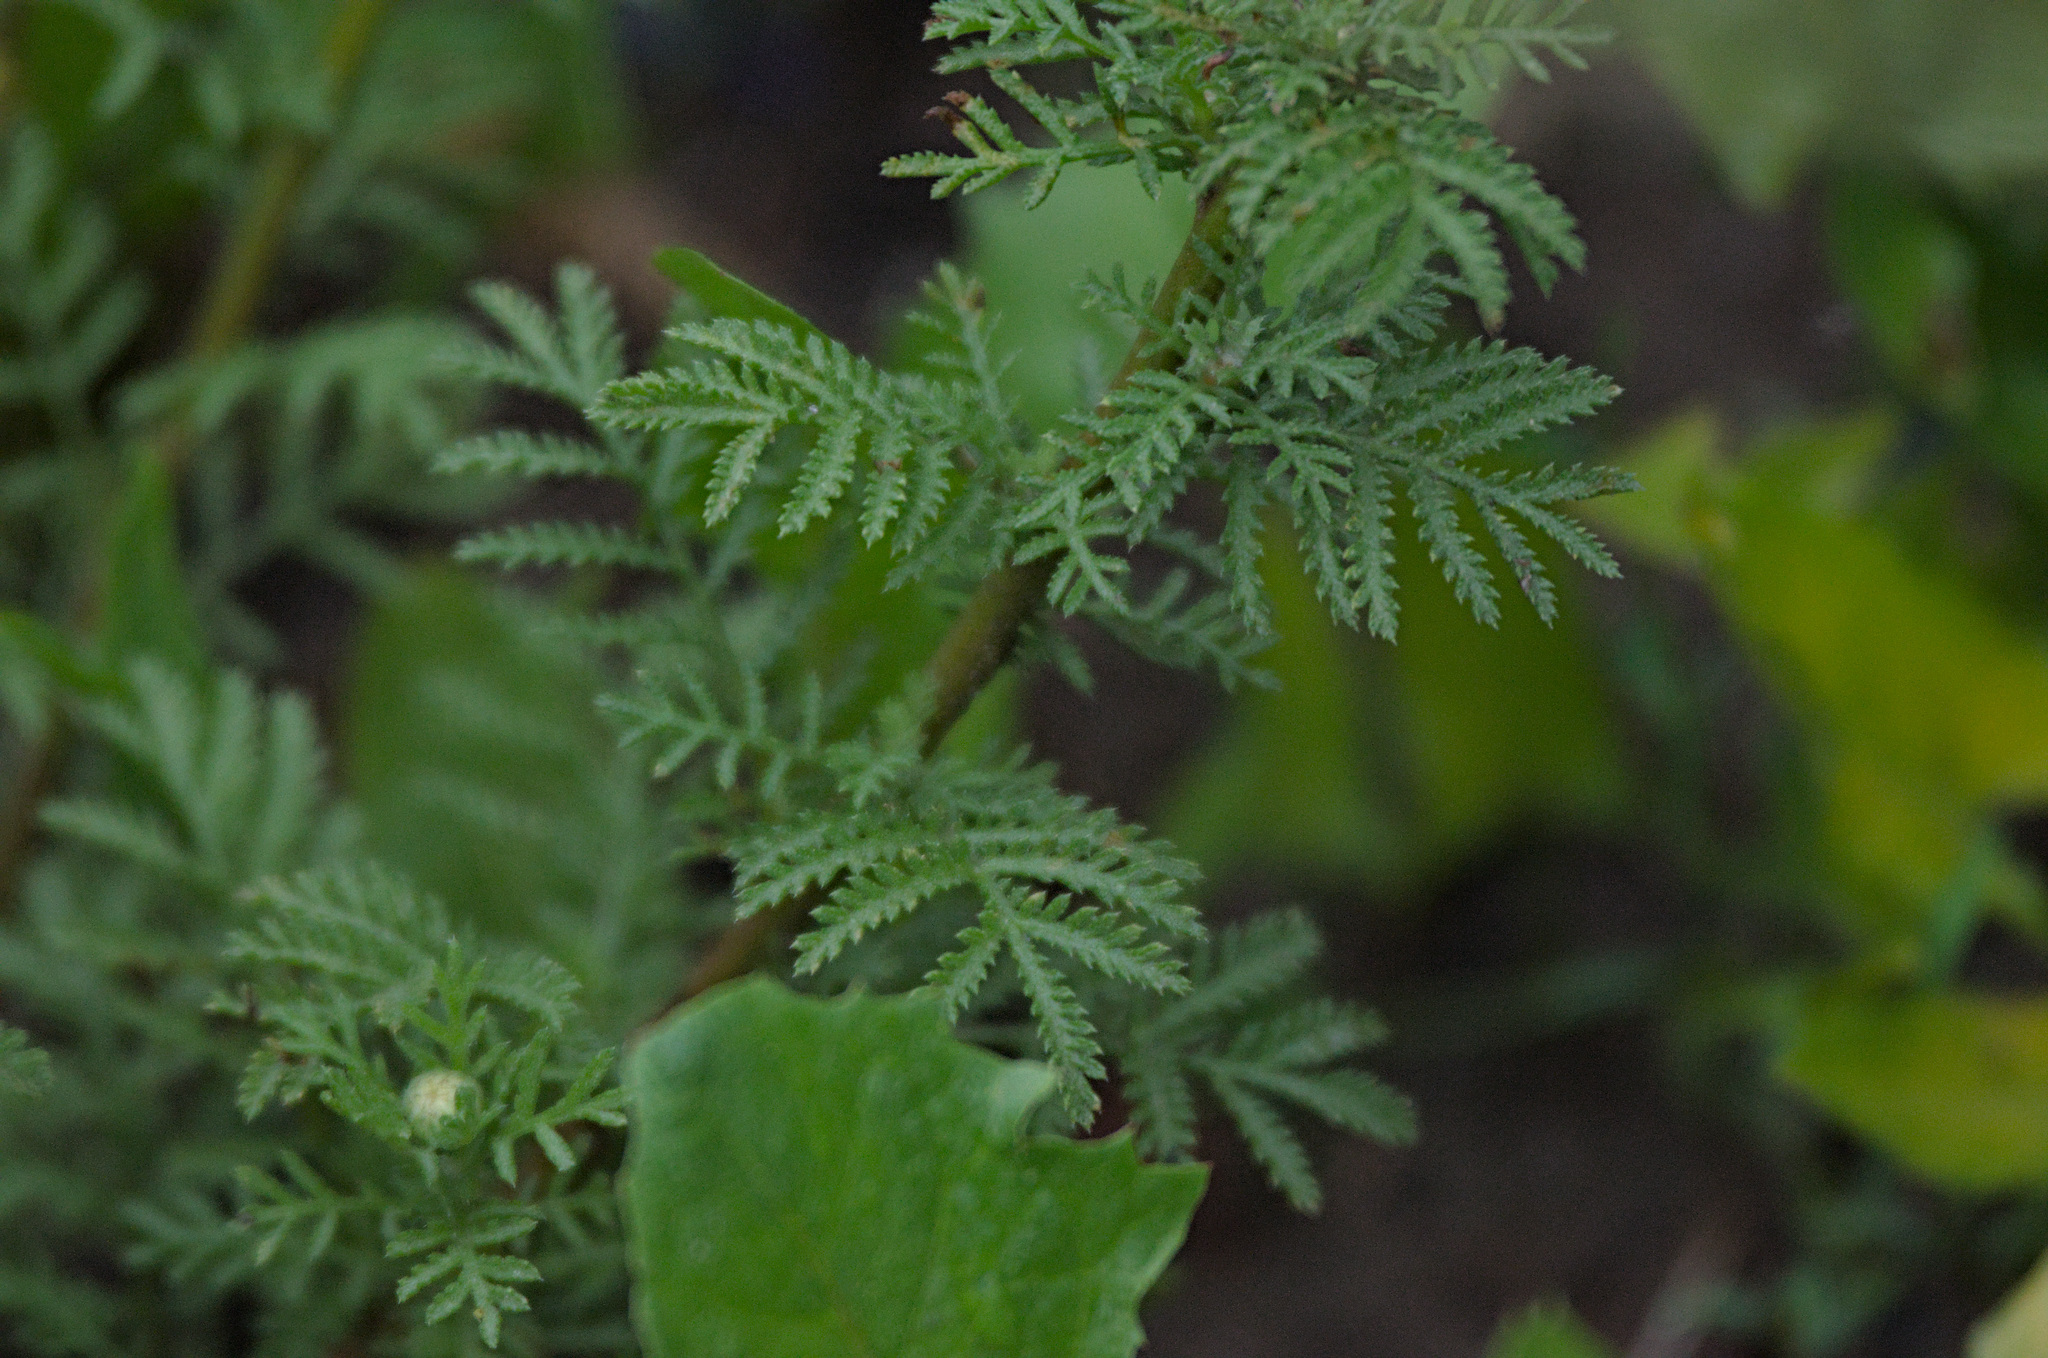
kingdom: Plantae
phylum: Tracheophyta
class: Magnoliopsida
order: Asterales
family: Asteraceae
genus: Cota
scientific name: Cota tinctoria
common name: Golden chamomile
